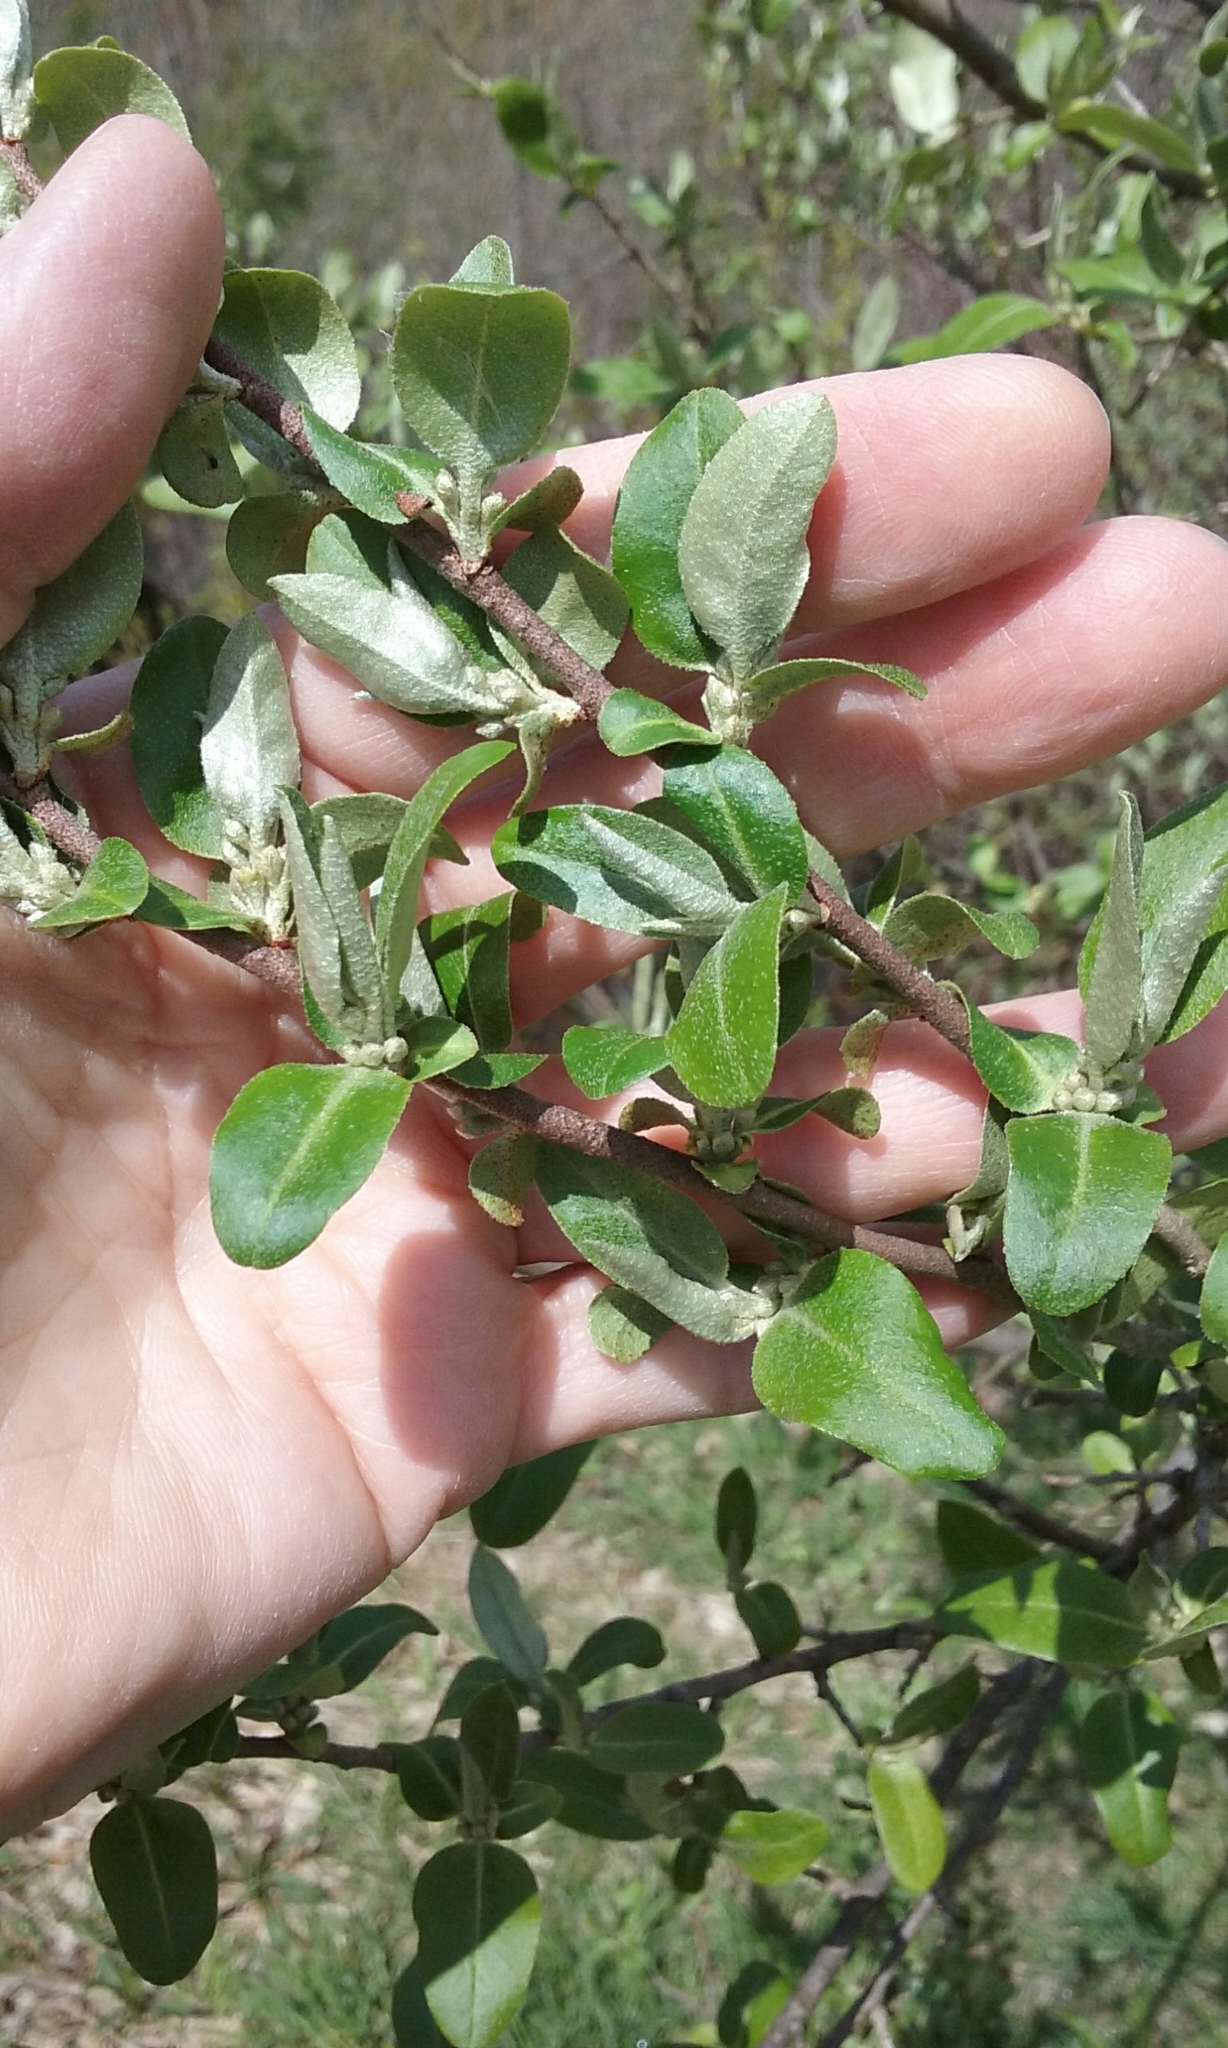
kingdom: Plantae
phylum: Tracheophyta
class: Magnoliopsida
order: Rosales
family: Elaeagnaceae
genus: Elaeagnus
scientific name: Elaeagnus umbellata
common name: Autumn olive
